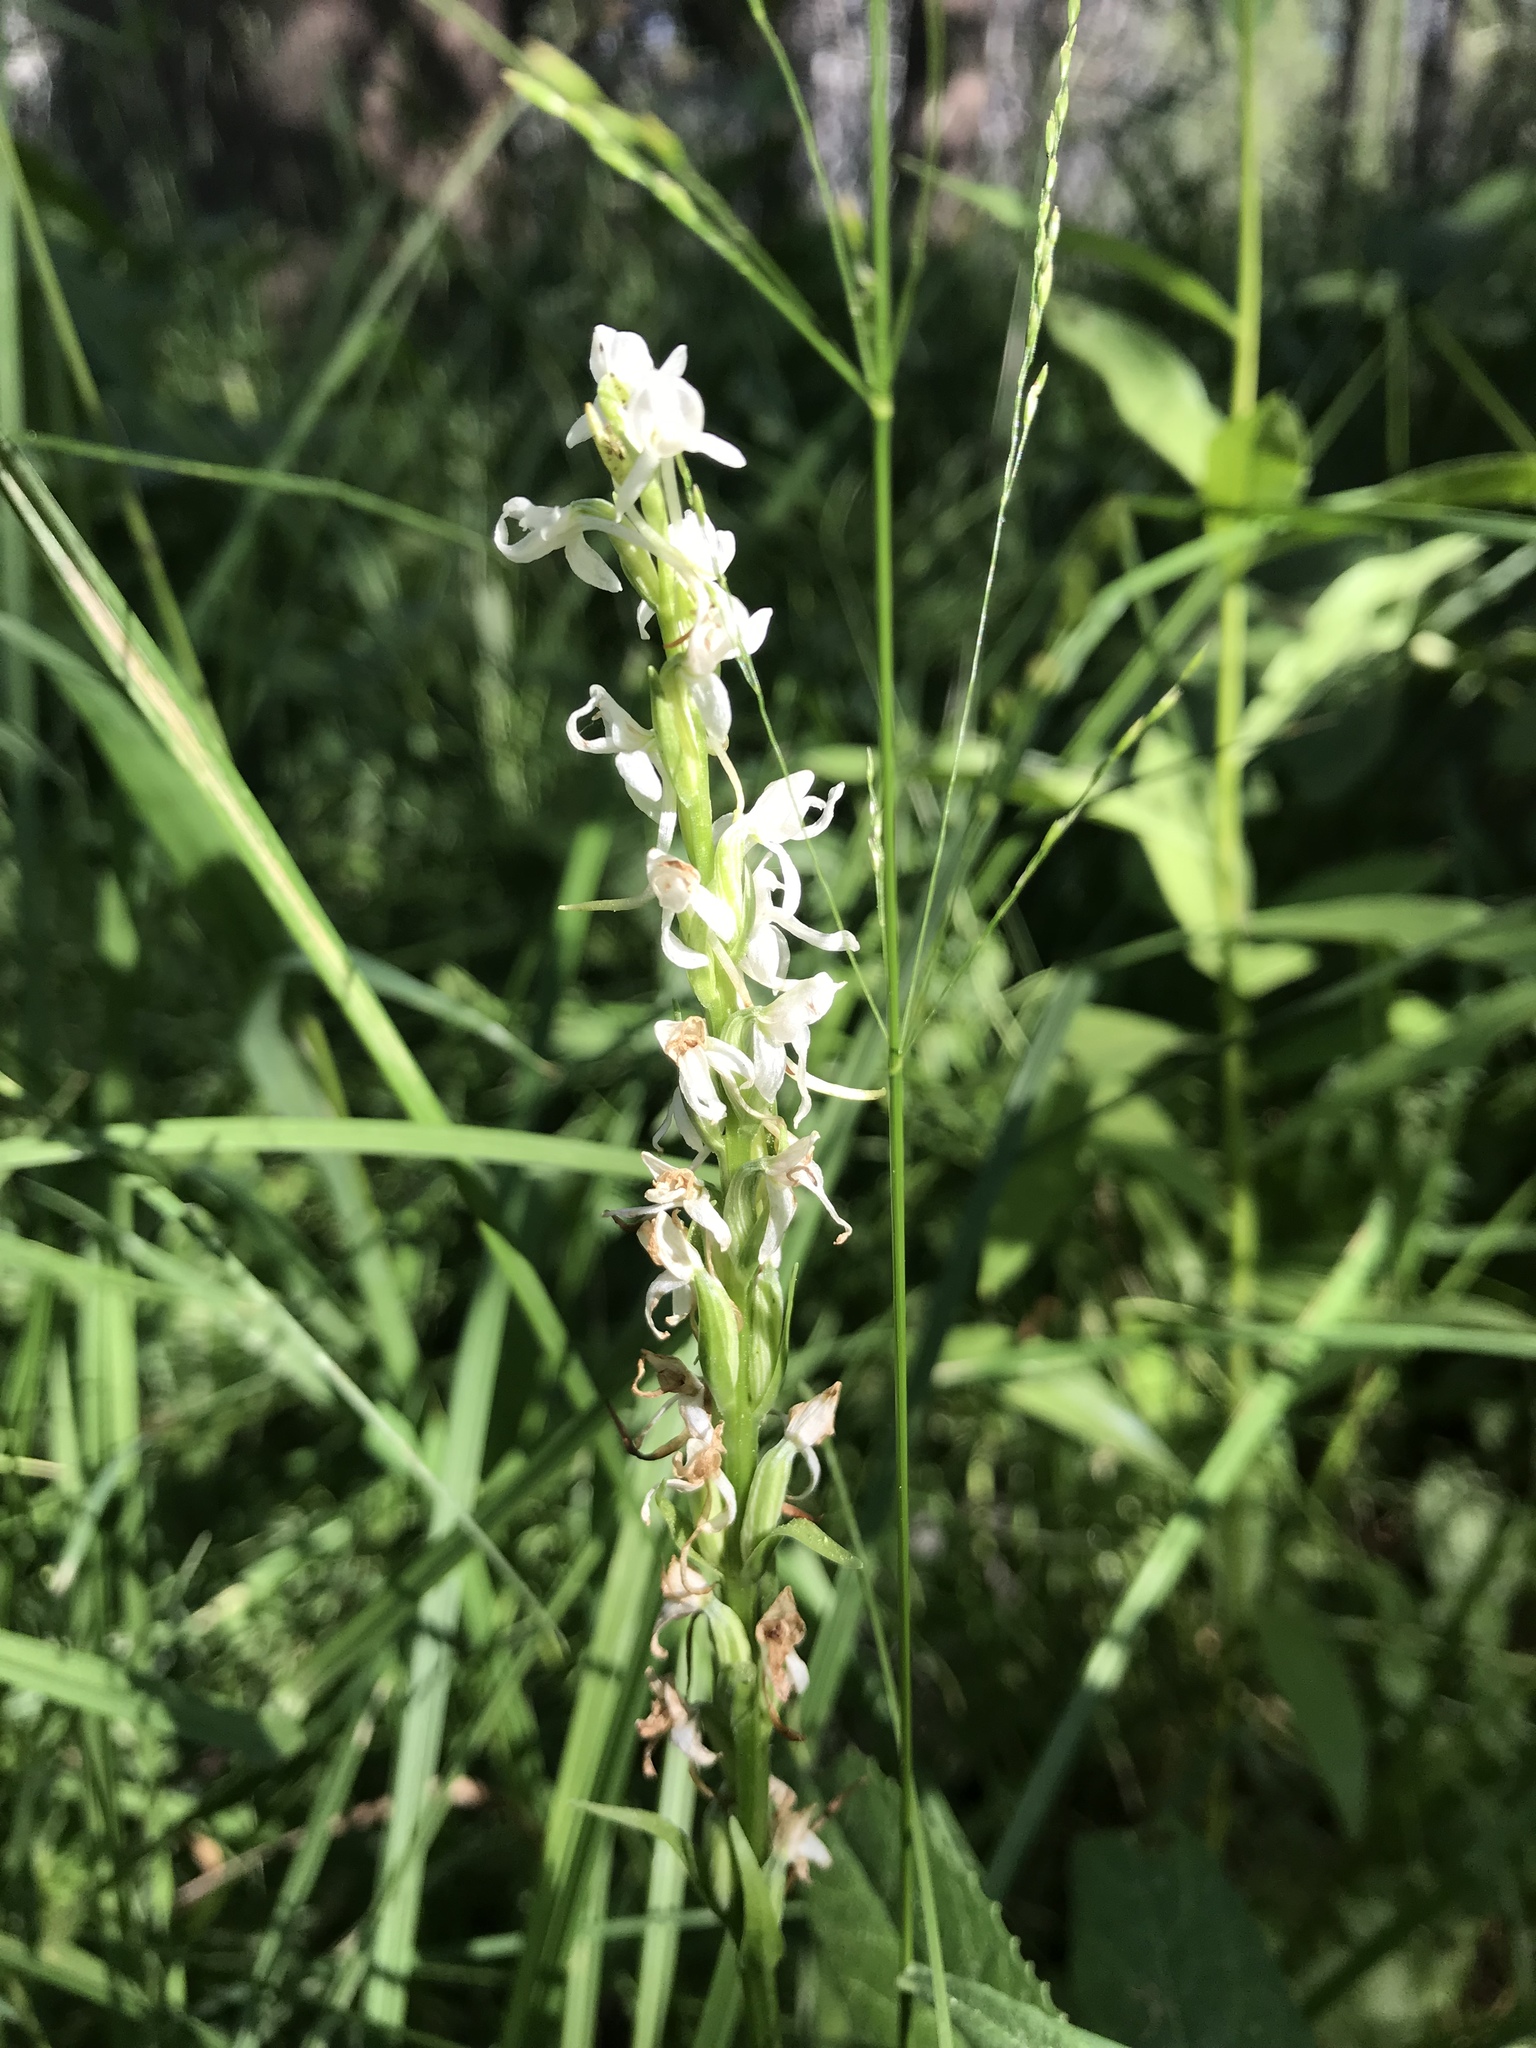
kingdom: Plantae
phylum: Tracheophyta
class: Liliopsida
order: Asparagales
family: Orchidaceae
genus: Platanthera
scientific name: Platanthera dilatata
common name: Bog candles
